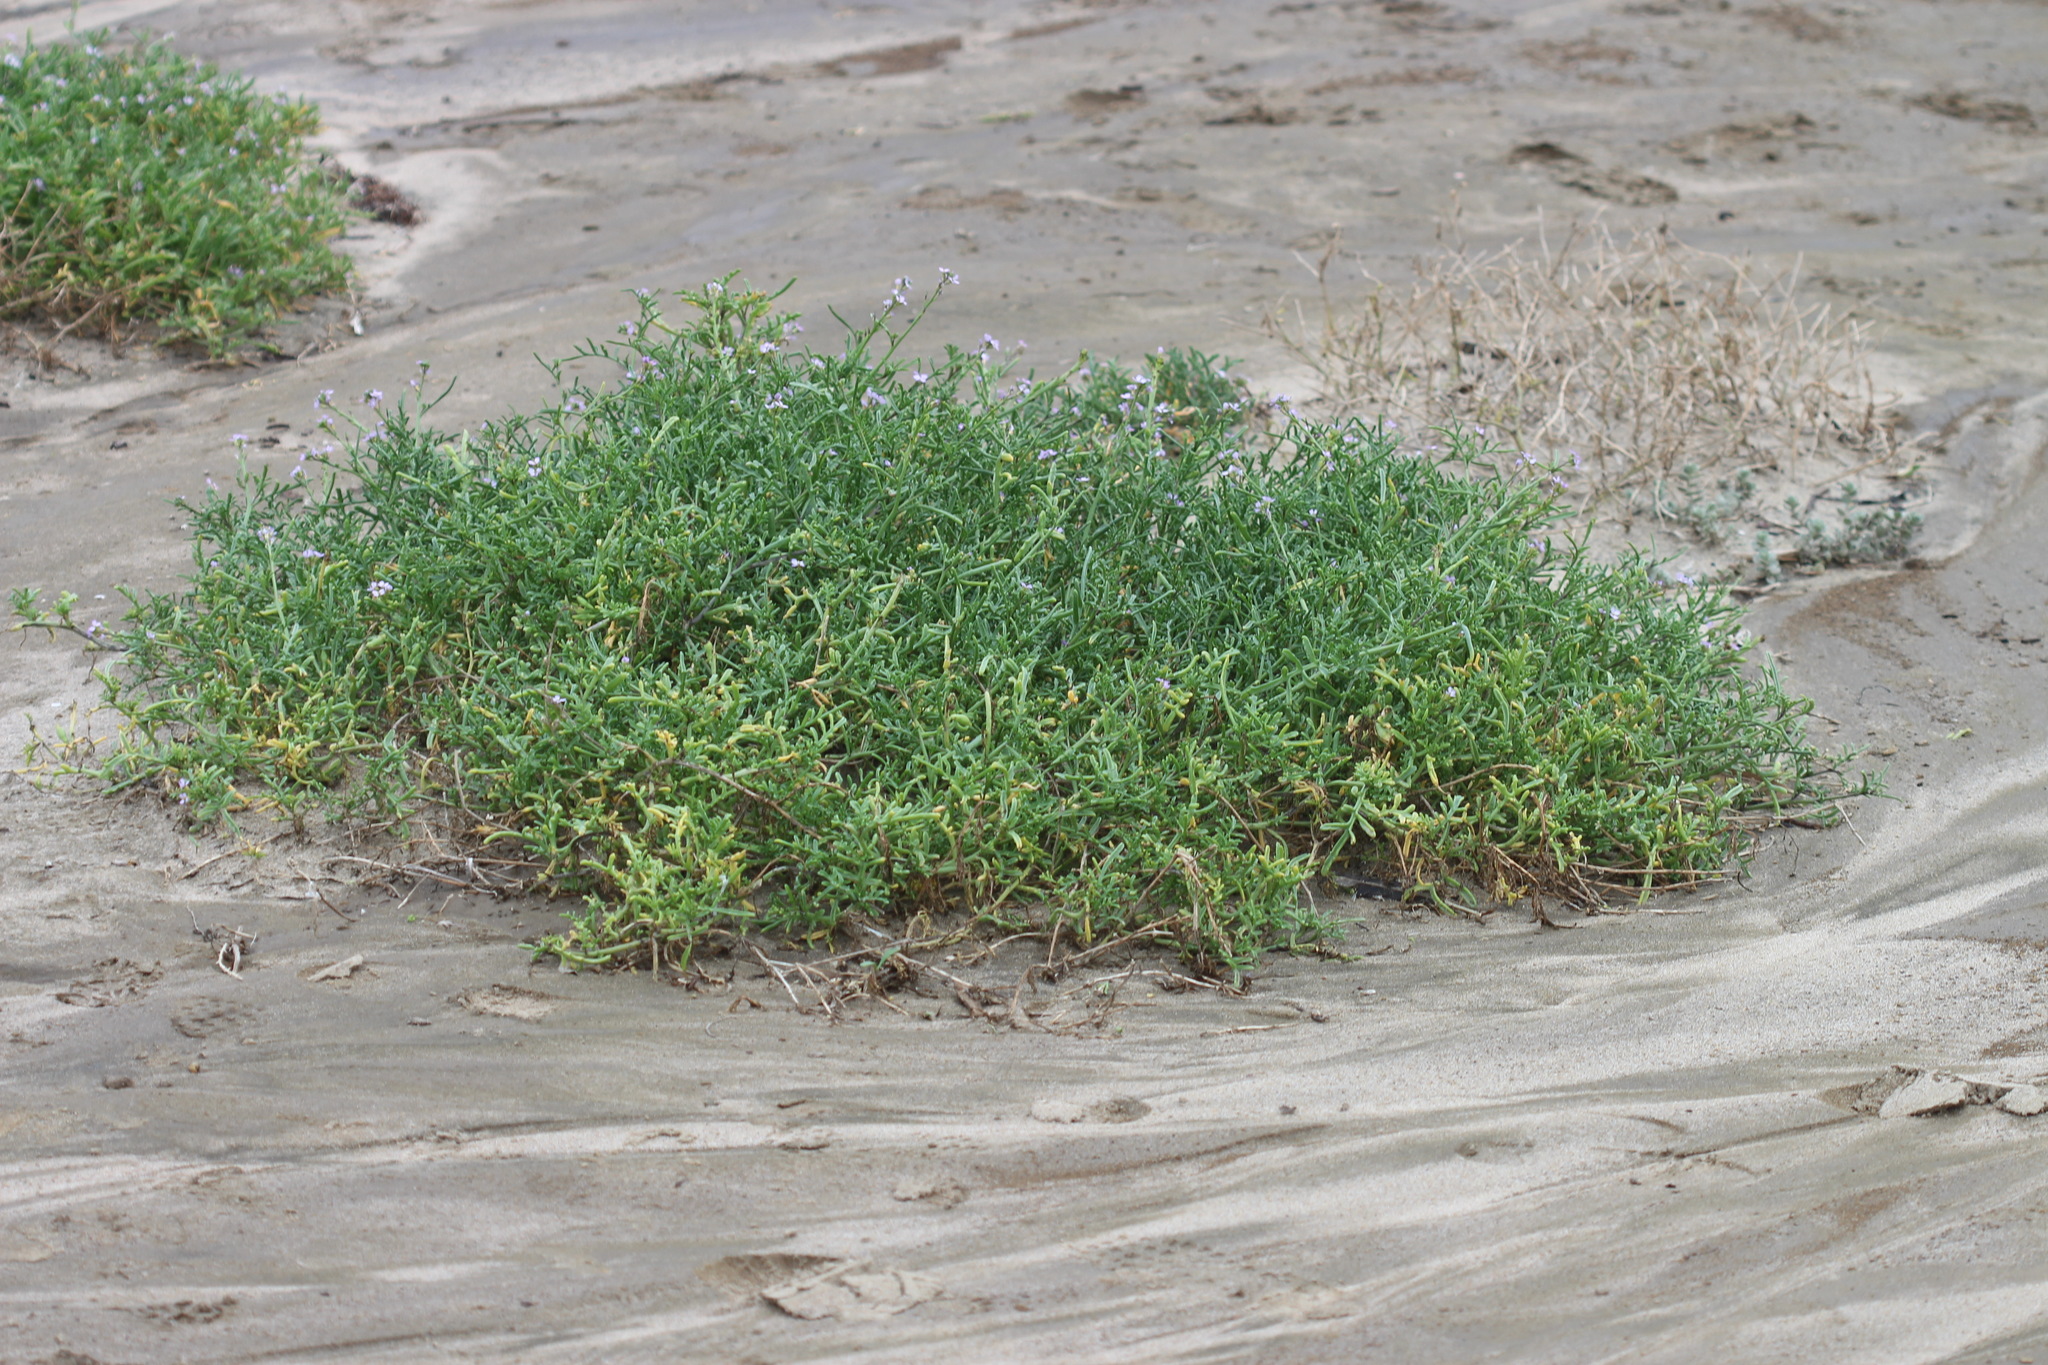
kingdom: Plantae
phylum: Tracheophyta
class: Magnoliopsida
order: Brassicales
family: Brassicaceae
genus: Cakile
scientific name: Cakile maritima
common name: Sea rocket
